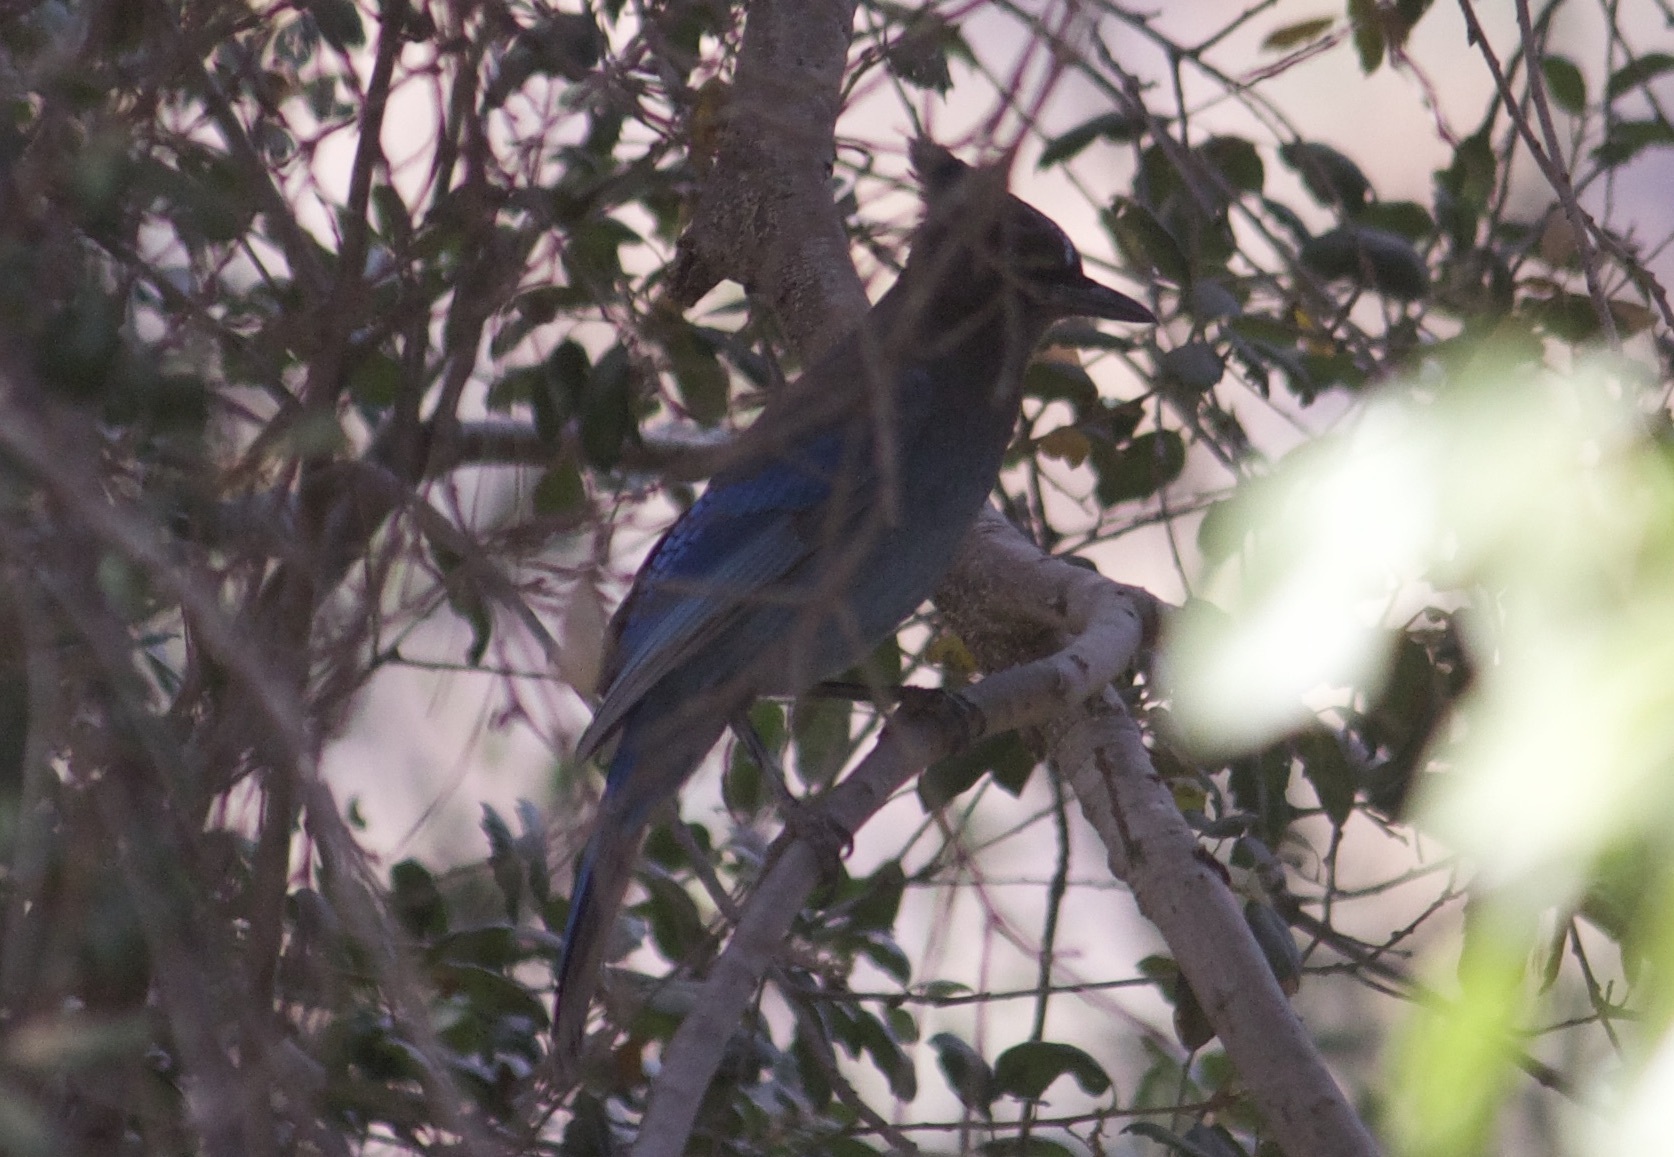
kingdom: Animalia
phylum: Chordata
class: Aves
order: Passeriformes
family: Corvidae
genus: Cyanocitta
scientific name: Cyanocitta stelleri
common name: Steller's jay
